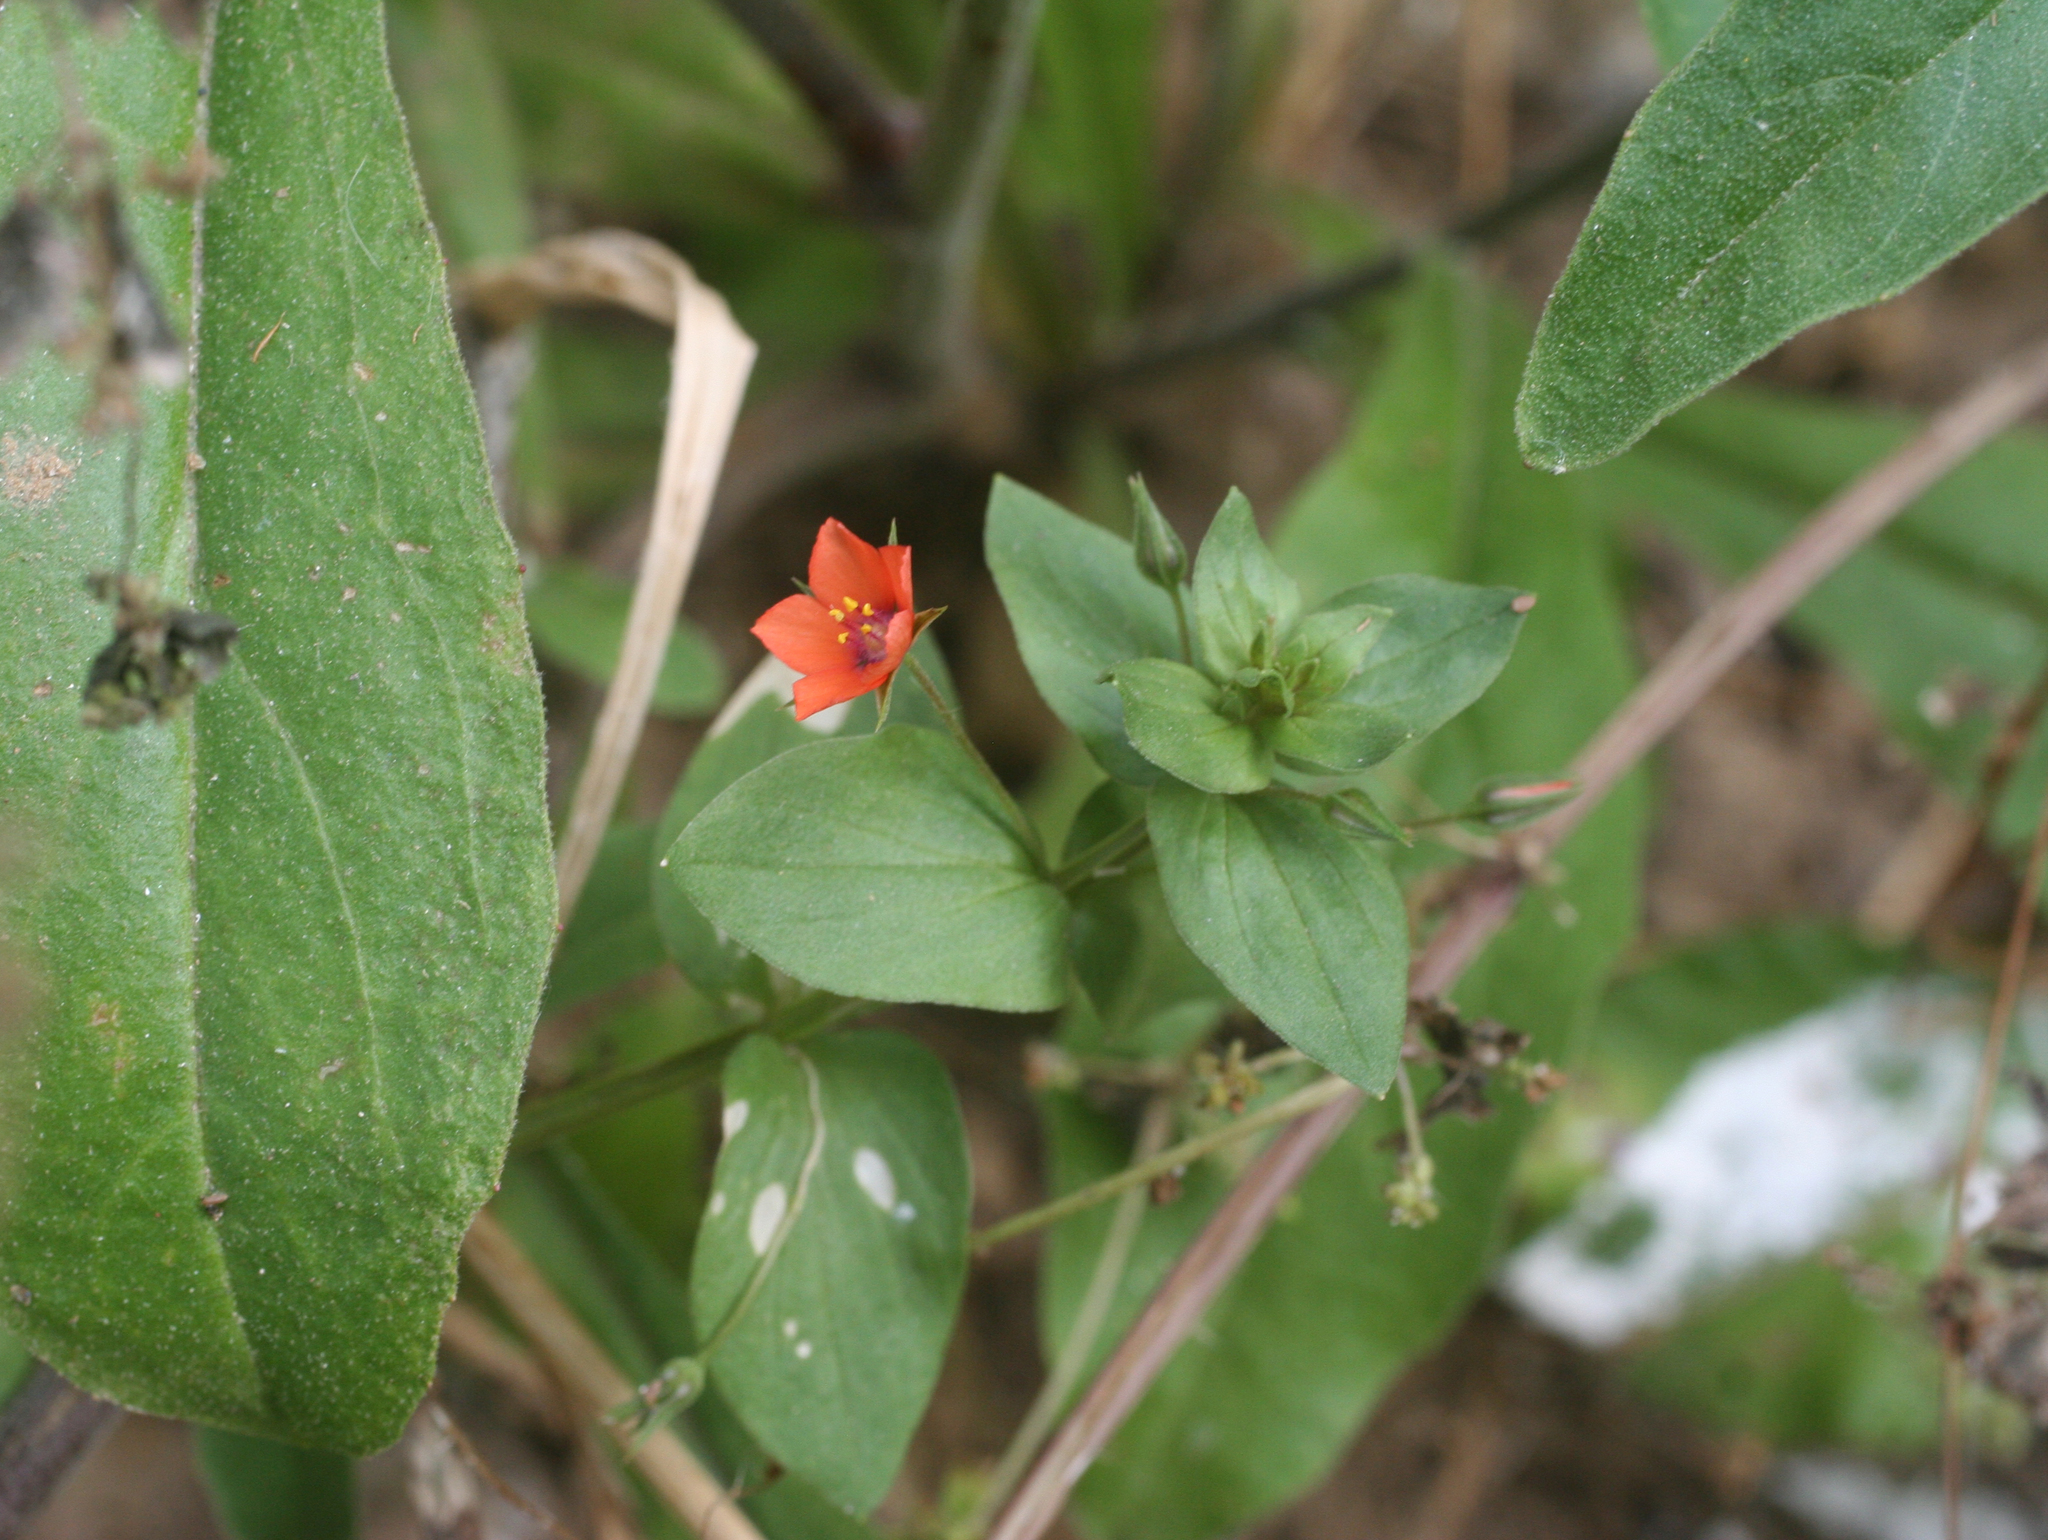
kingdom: Plantae
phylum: Tracheophyta
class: Magnoliopsida
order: Ericales
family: Primulaceae
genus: Lysimachia
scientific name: Lysimachia arvensis
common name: Scarlet pimpernel
